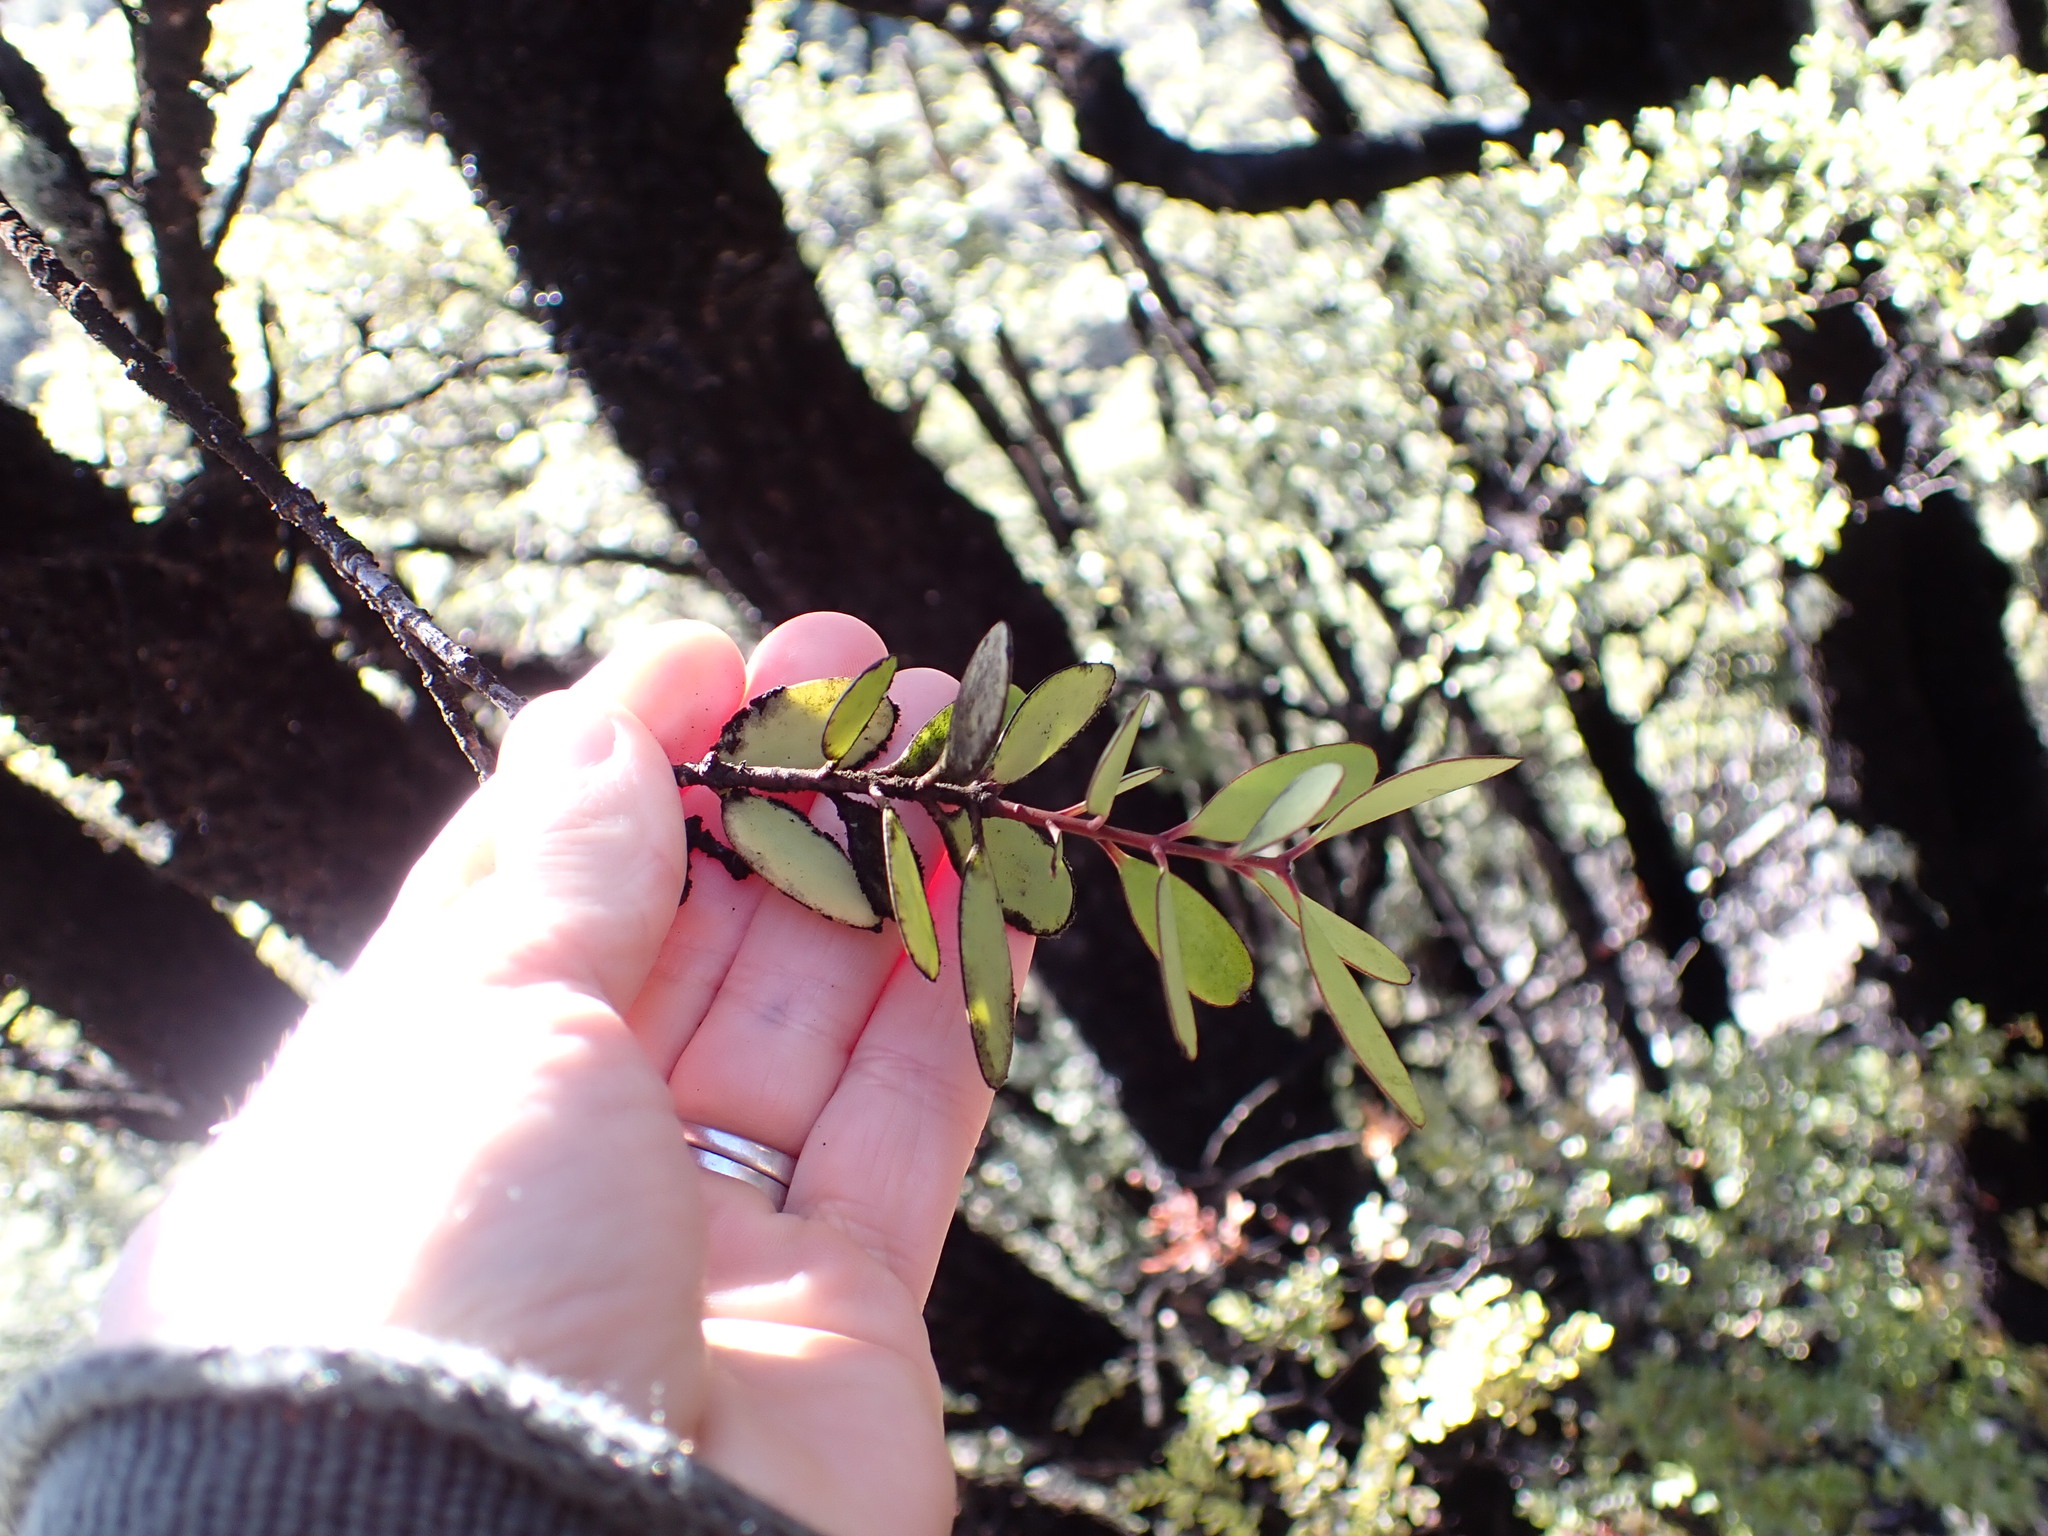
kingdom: Plantae
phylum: Tracheophyta
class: Magnoliopsida
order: Santalales
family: Loranthaceae
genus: Alepis
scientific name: Alepis flavida
